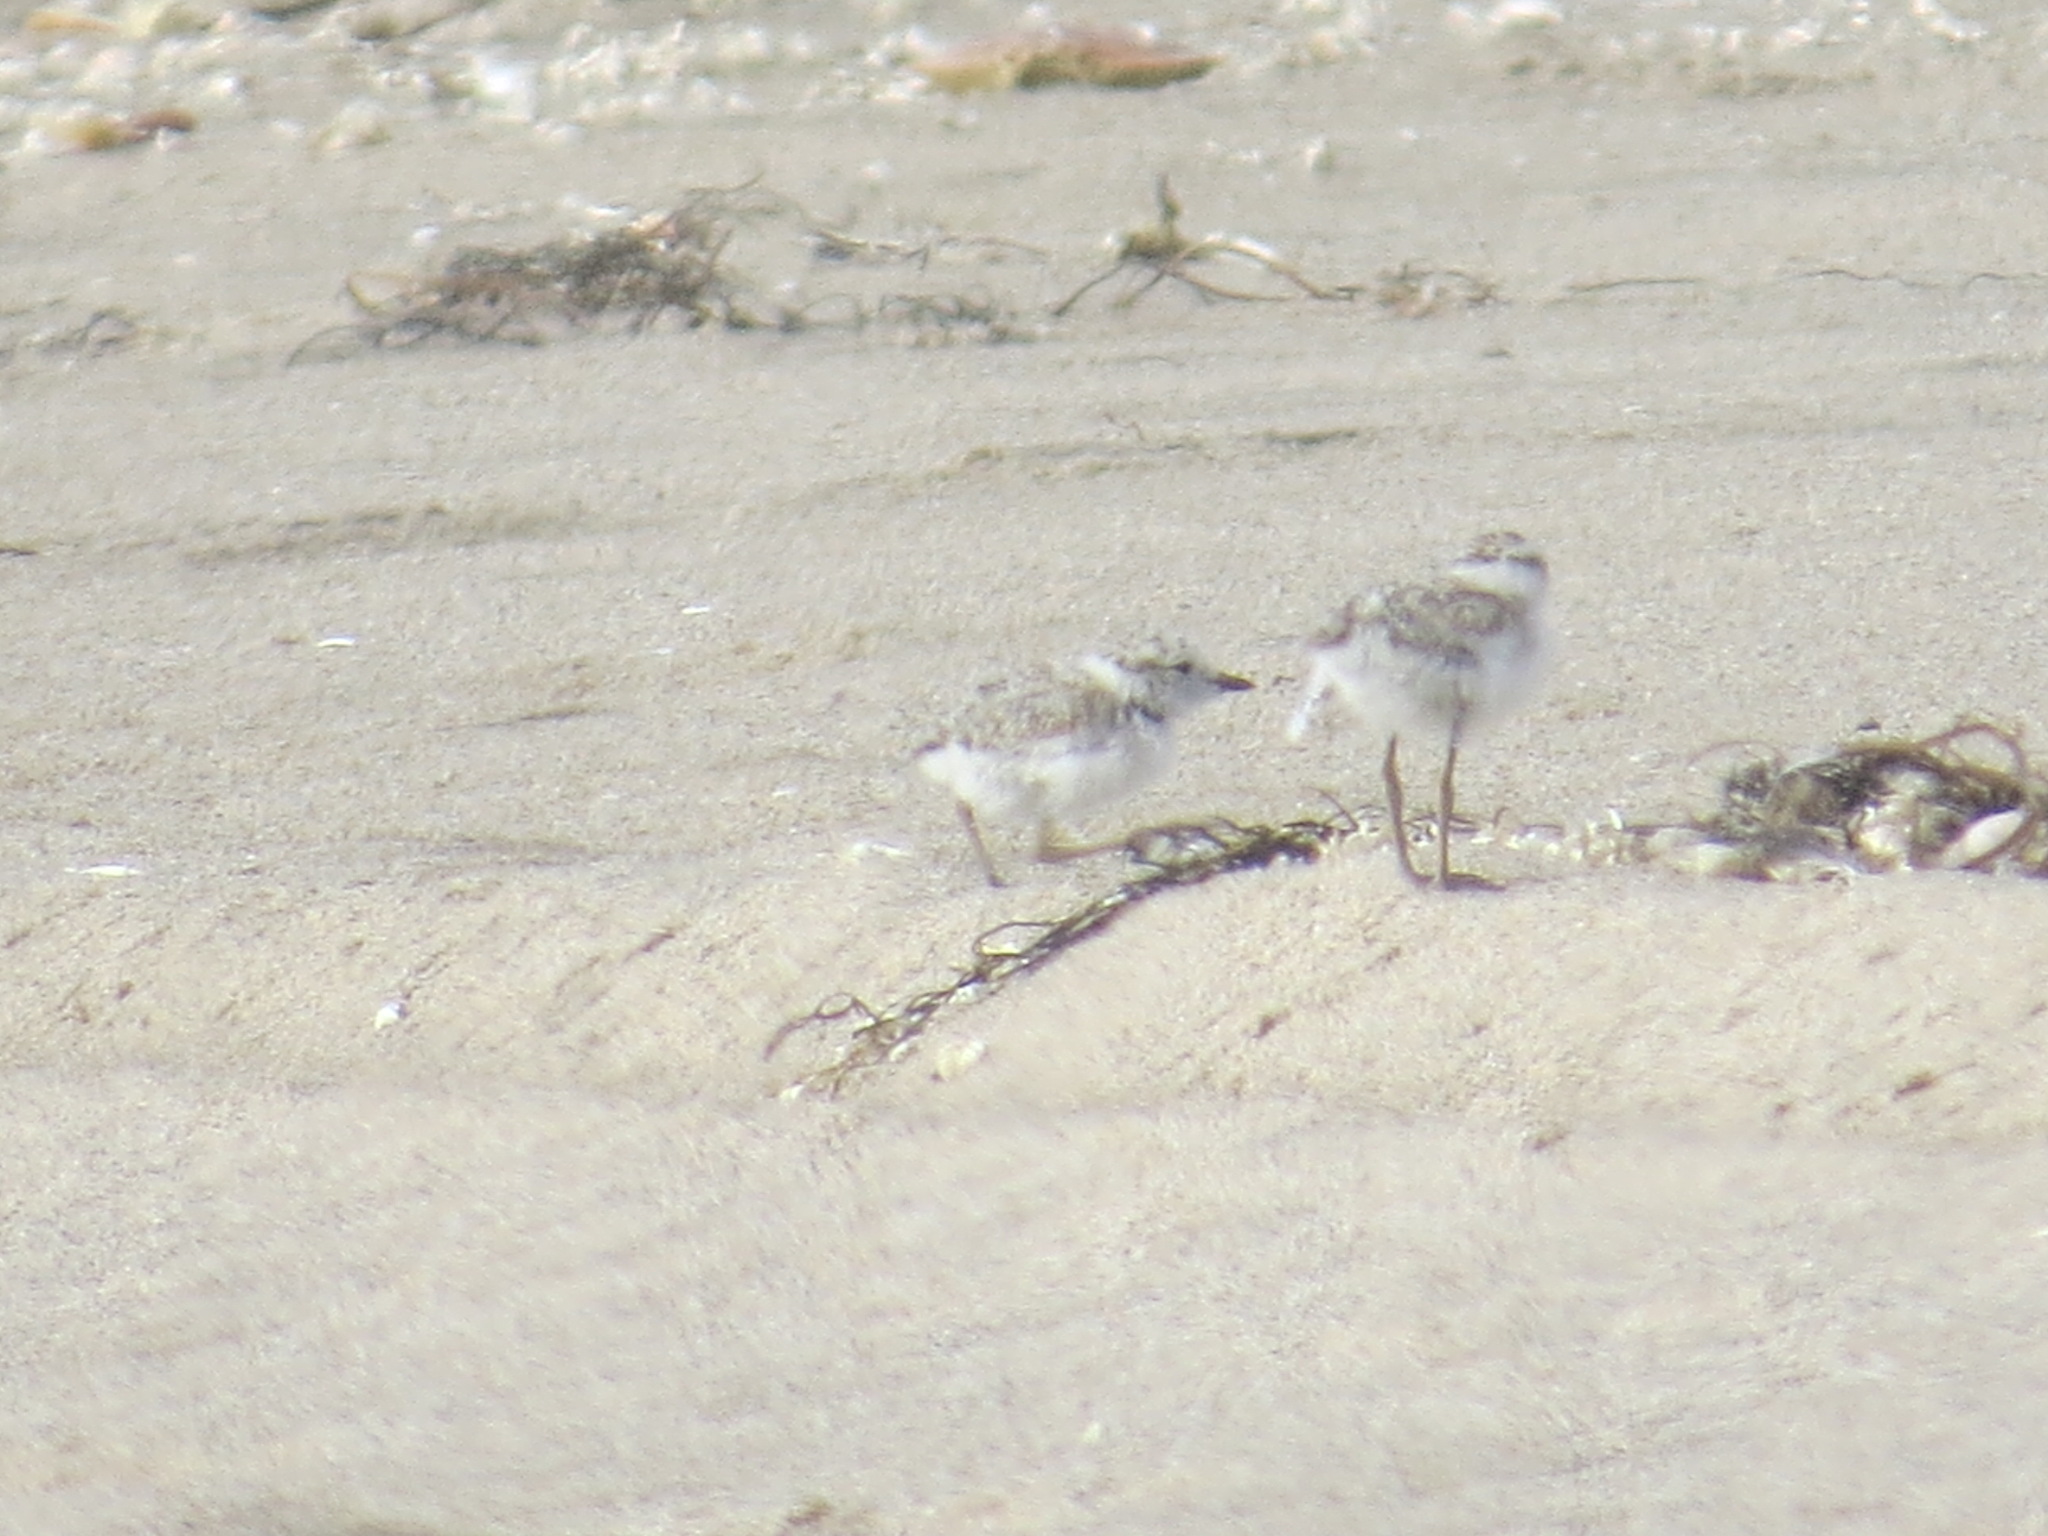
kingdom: Animalia
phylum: Chordata
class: Aves
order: Charadriiformes
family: Charadriidae
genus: Anarhynchus
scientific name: Anarhynchus
